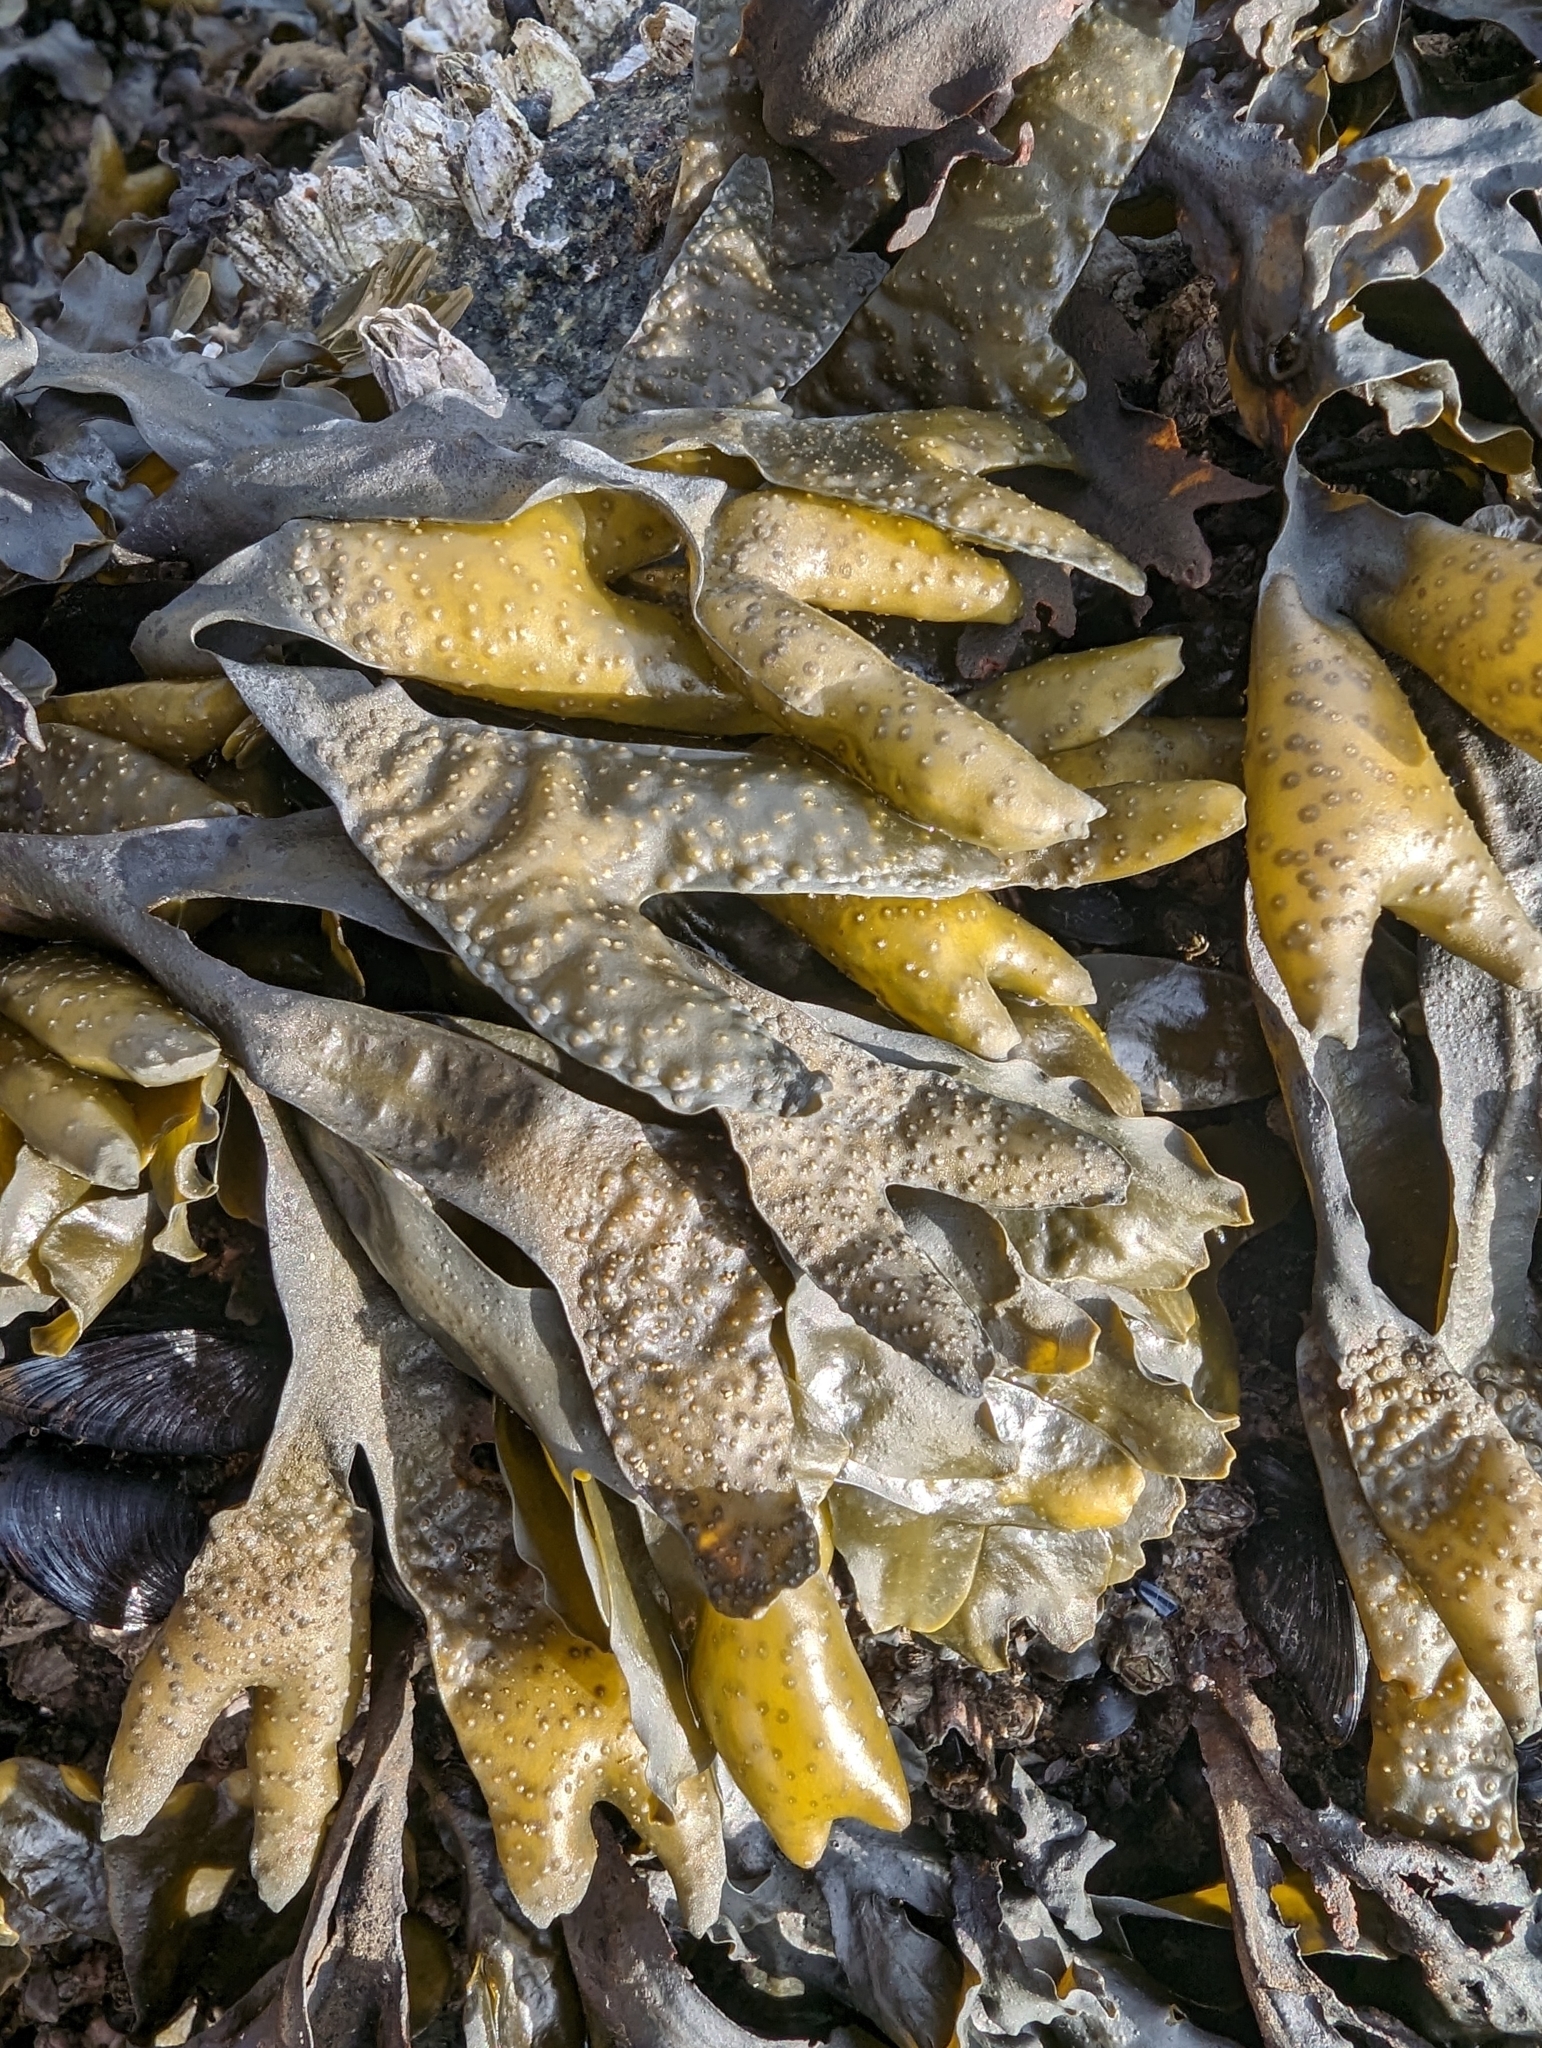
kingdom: Chromista
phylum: Ochrophyta
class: Phaeophyceae
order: Fucales
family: Fucaceae
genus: Fucus
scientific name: Fucus distichus
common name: Rockweed
